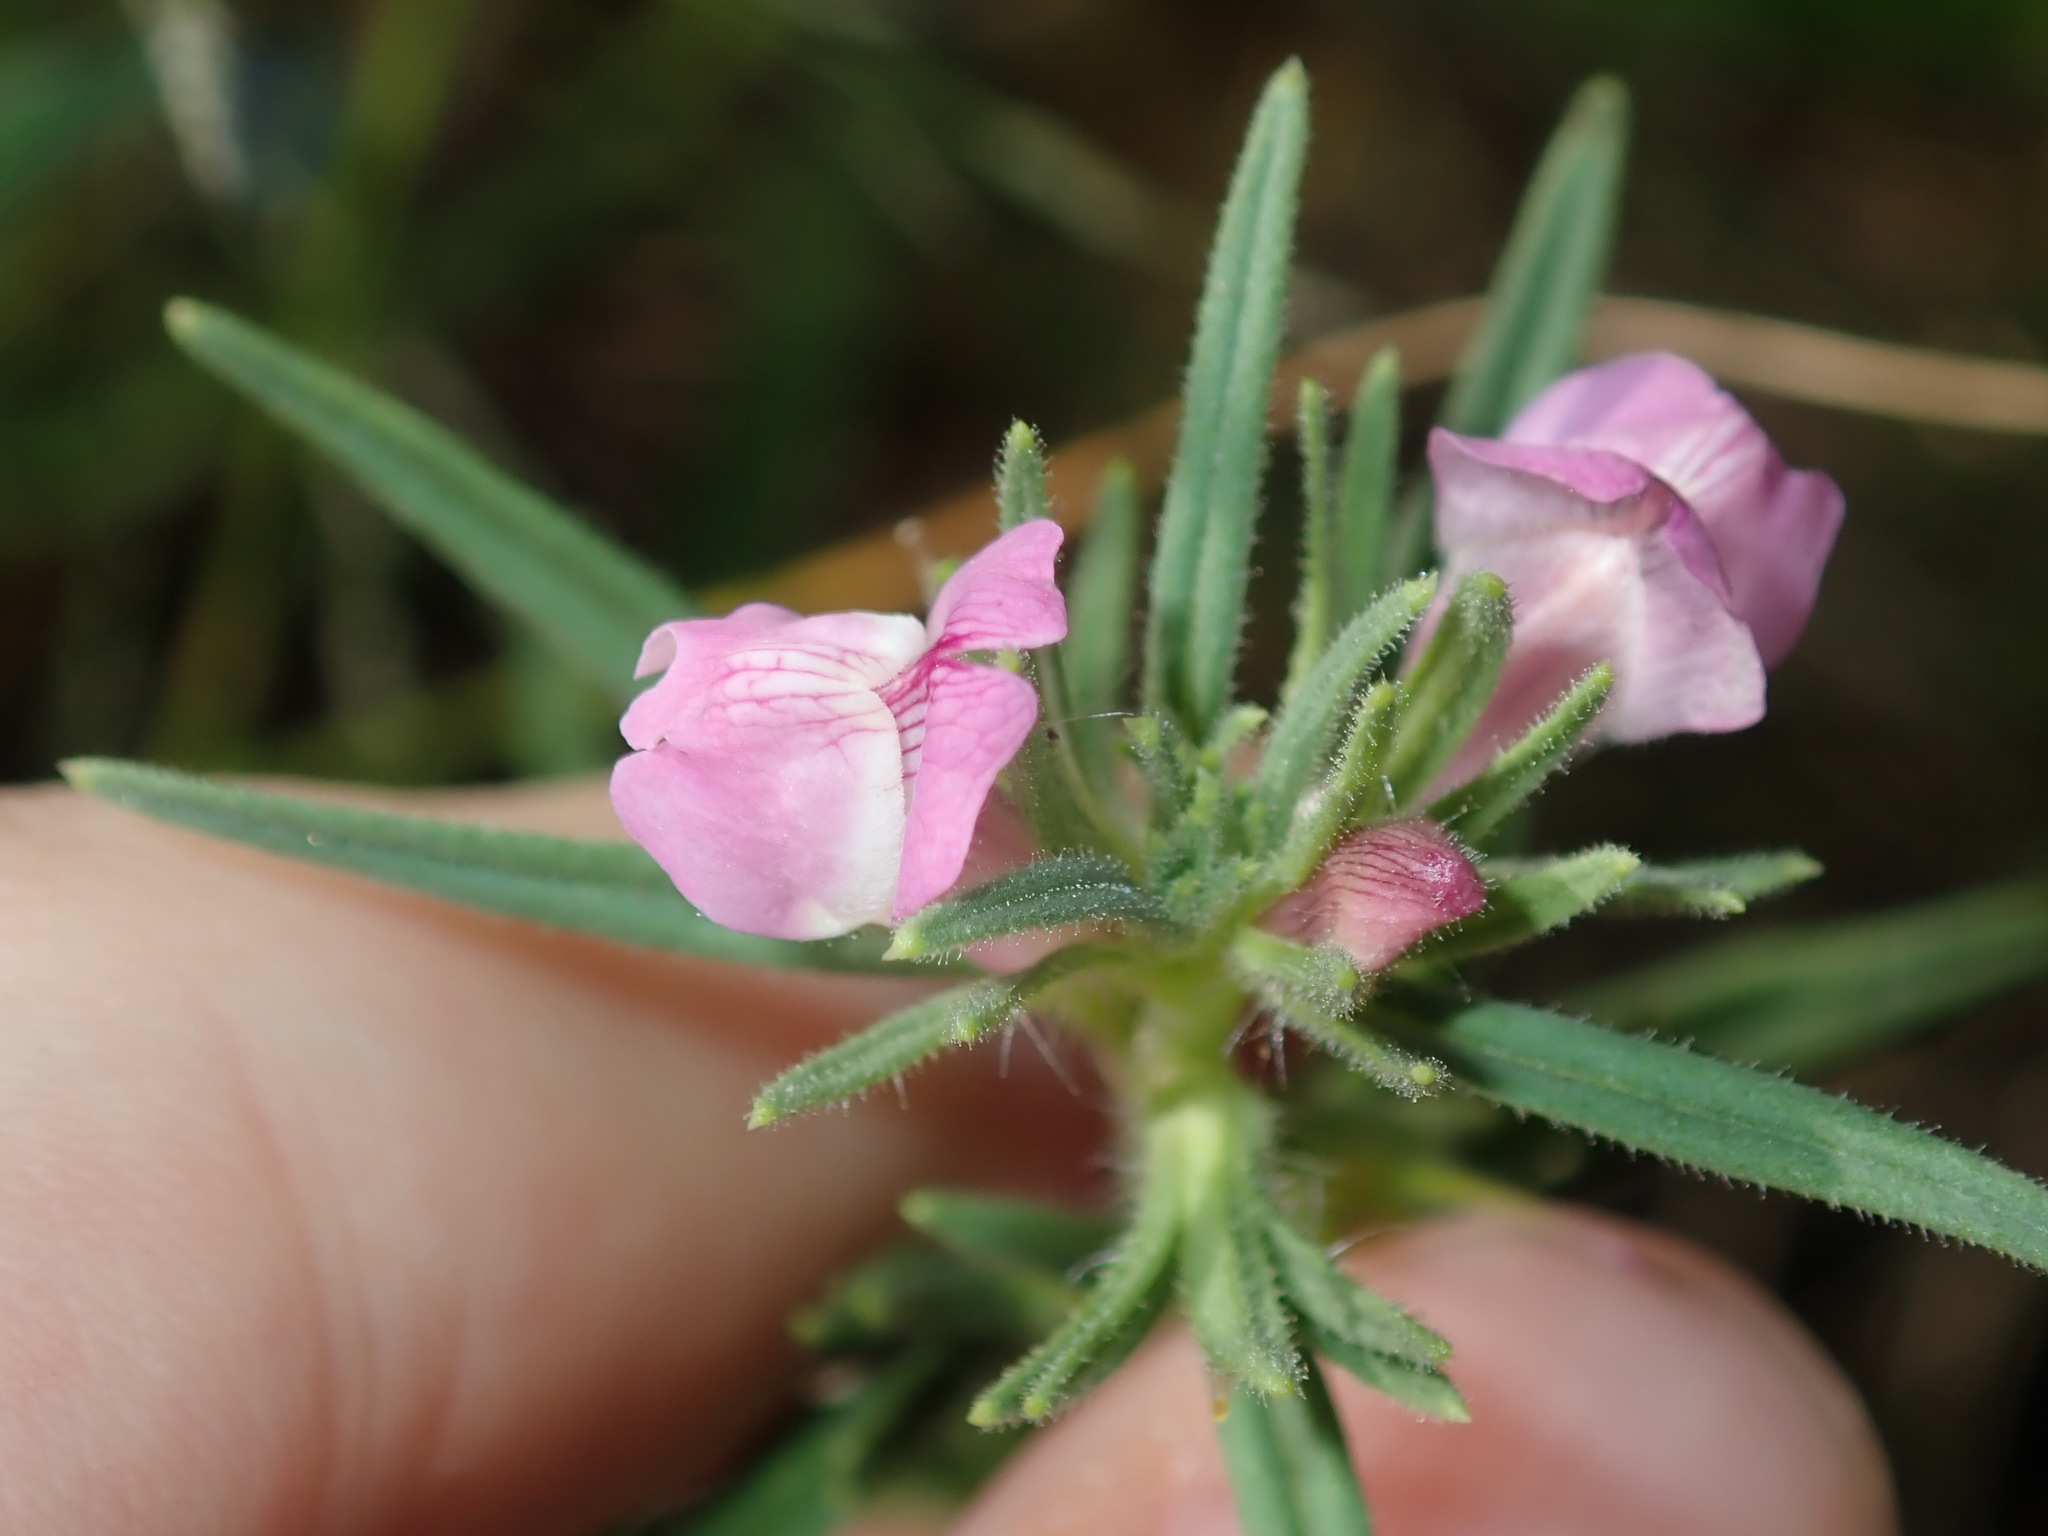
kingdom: Plantae
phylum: Tracheophyta
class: Magnoliopsida
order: Lamiales
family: Plantaginaceae
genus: Misopates
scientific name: Misopates orontium
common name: Weasel's-snout
